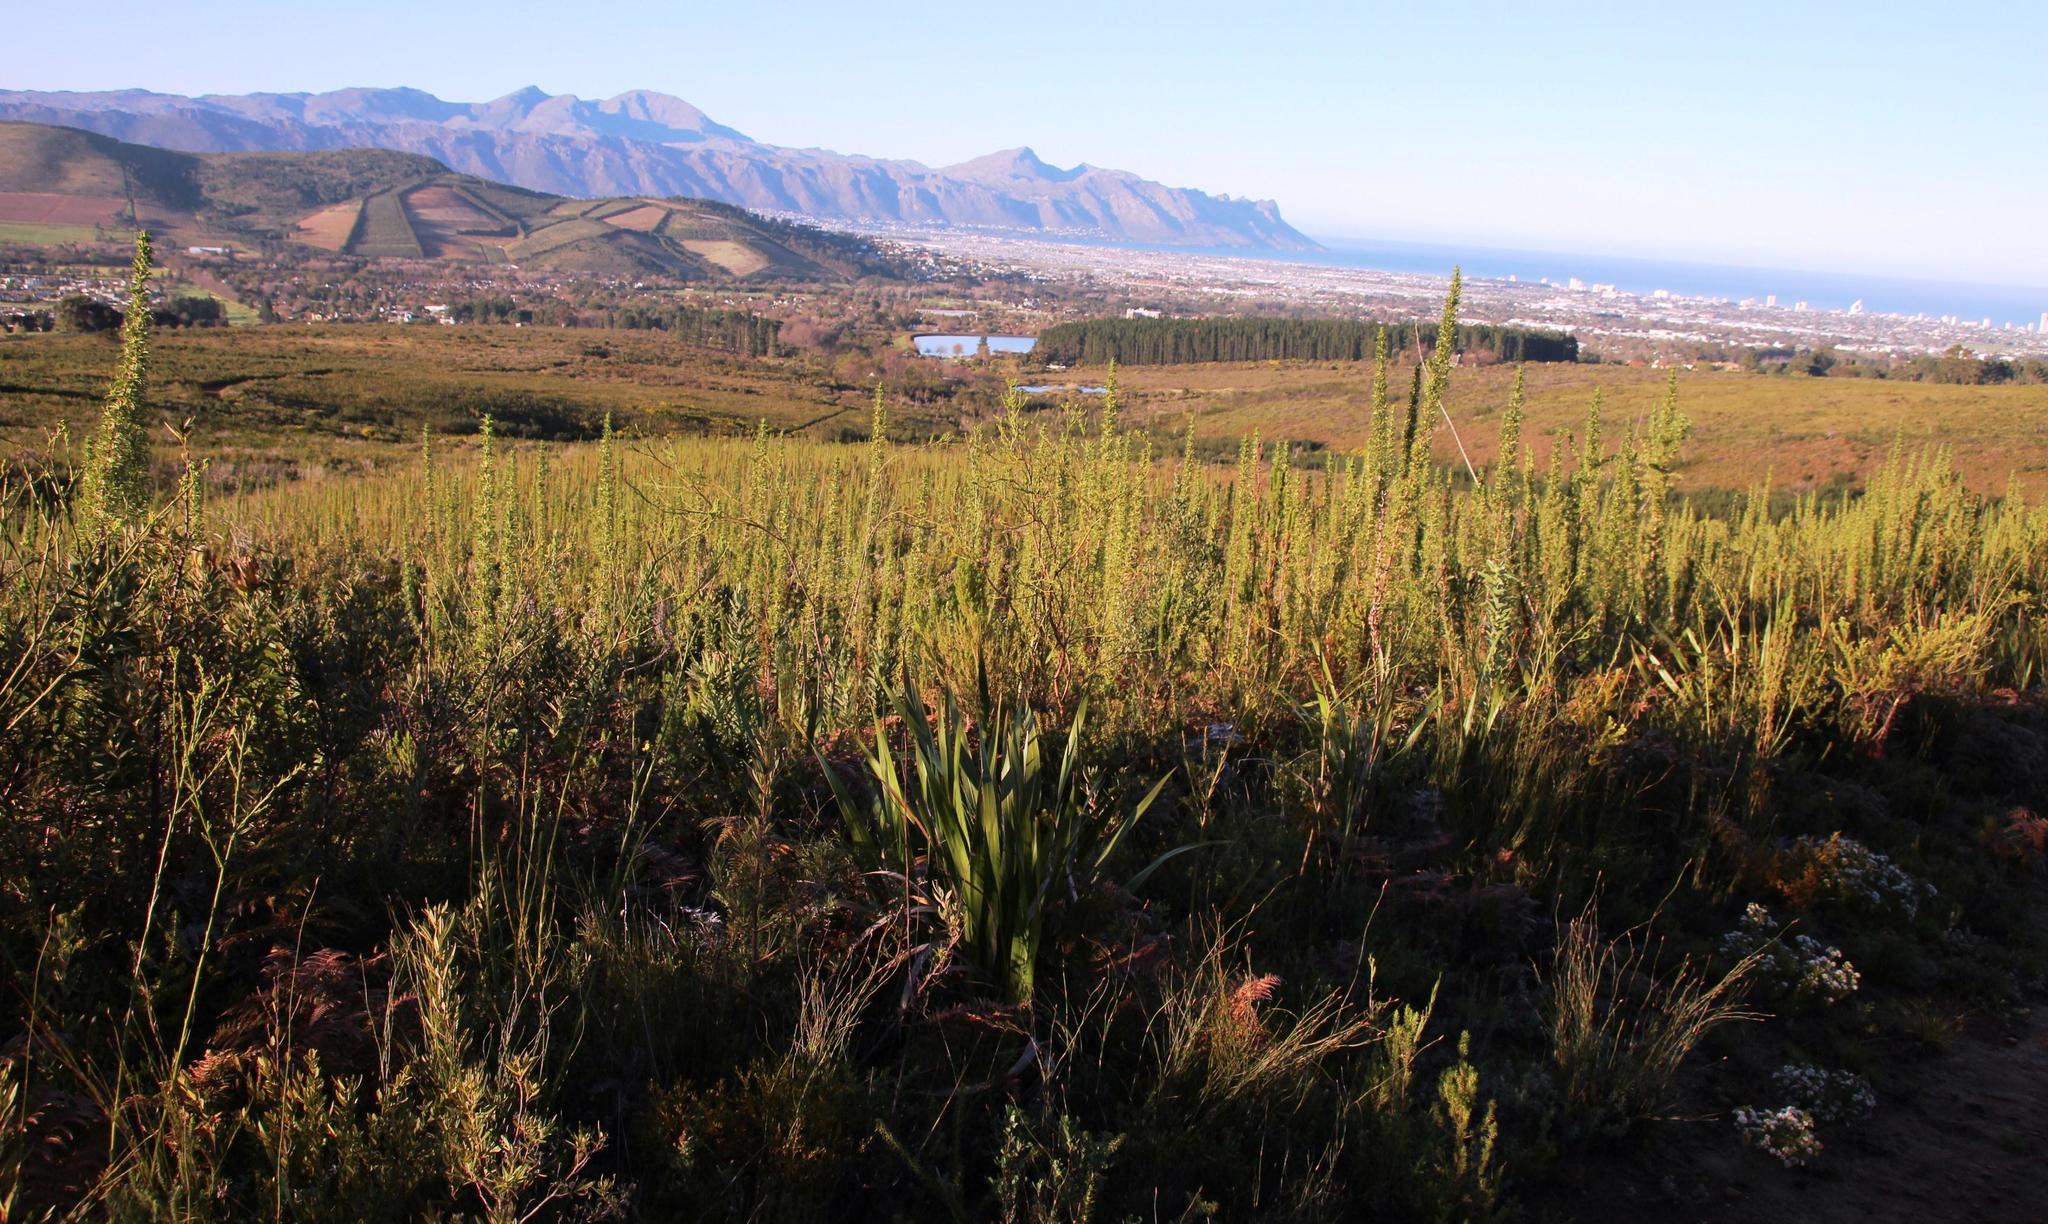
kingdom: Plantae
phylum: Tracheophyta
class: Magnoliopsida
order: Rosales
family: Rosaceae
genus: Cliffortia
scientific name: Cliffortia phillipsii
